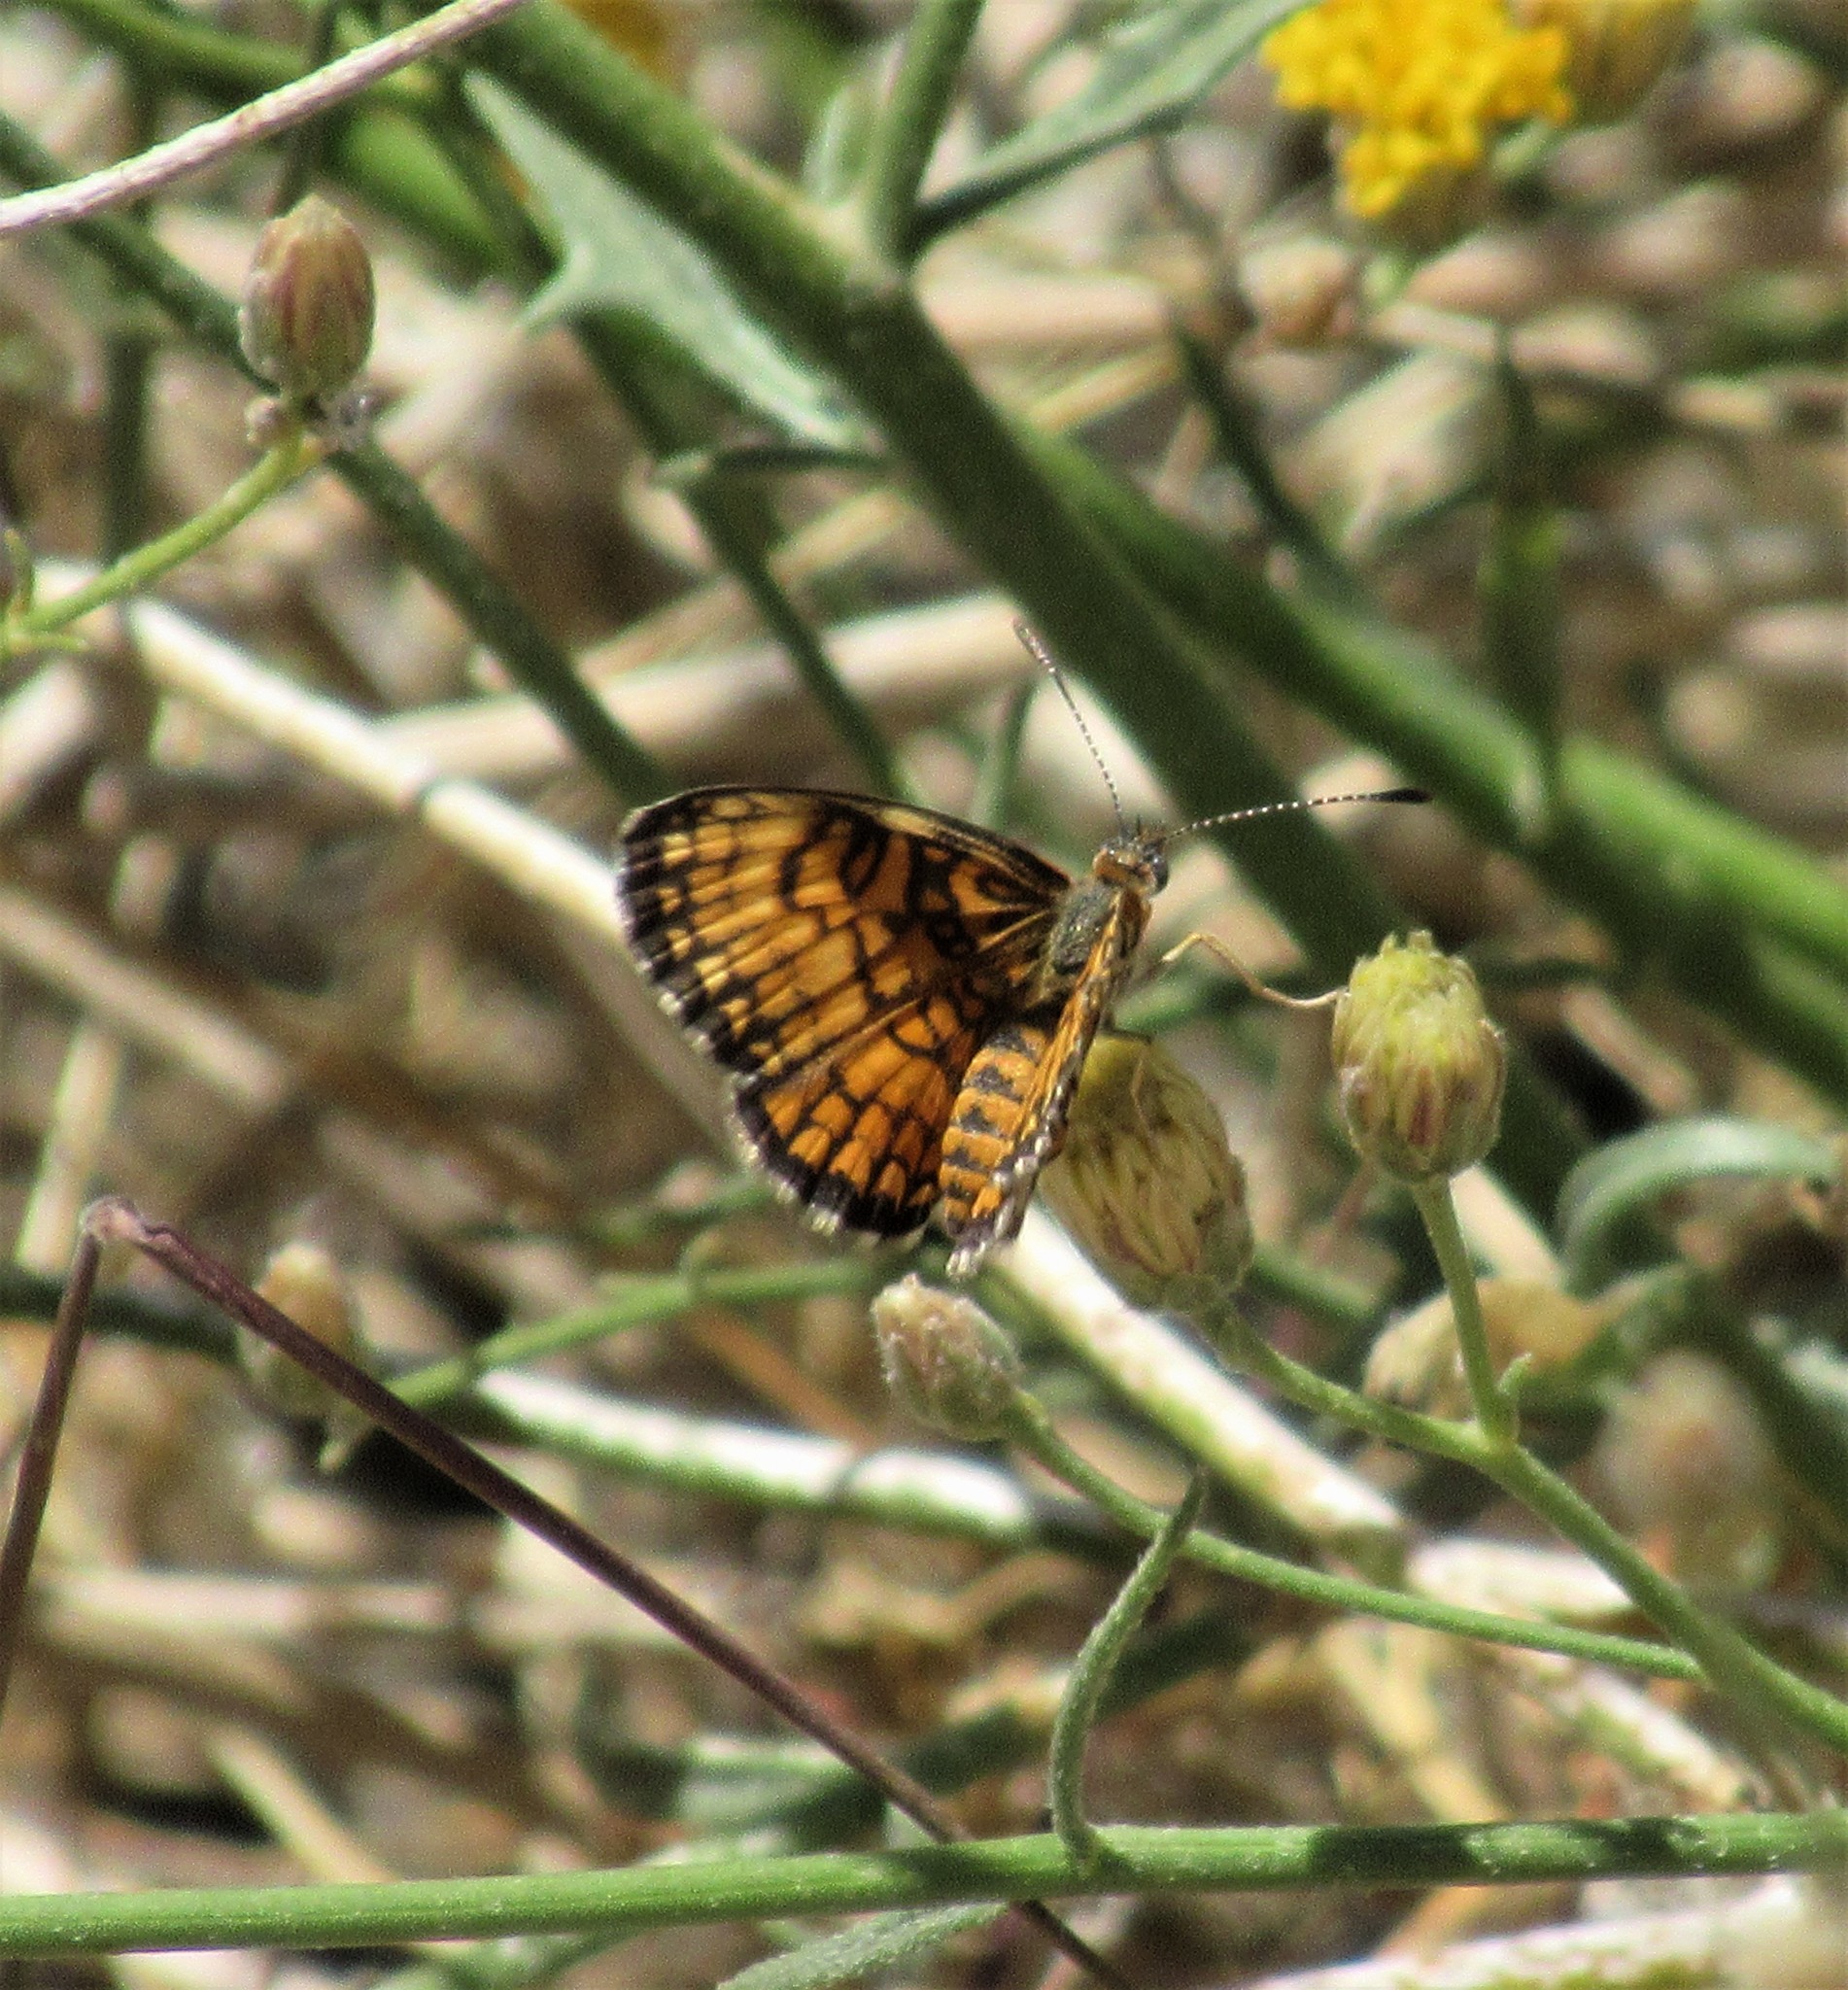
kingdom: Animalia
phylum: Arthropoda
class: Insecta
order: Lepidoptera
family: Nymphalidae
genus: Texola
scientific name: Texola
